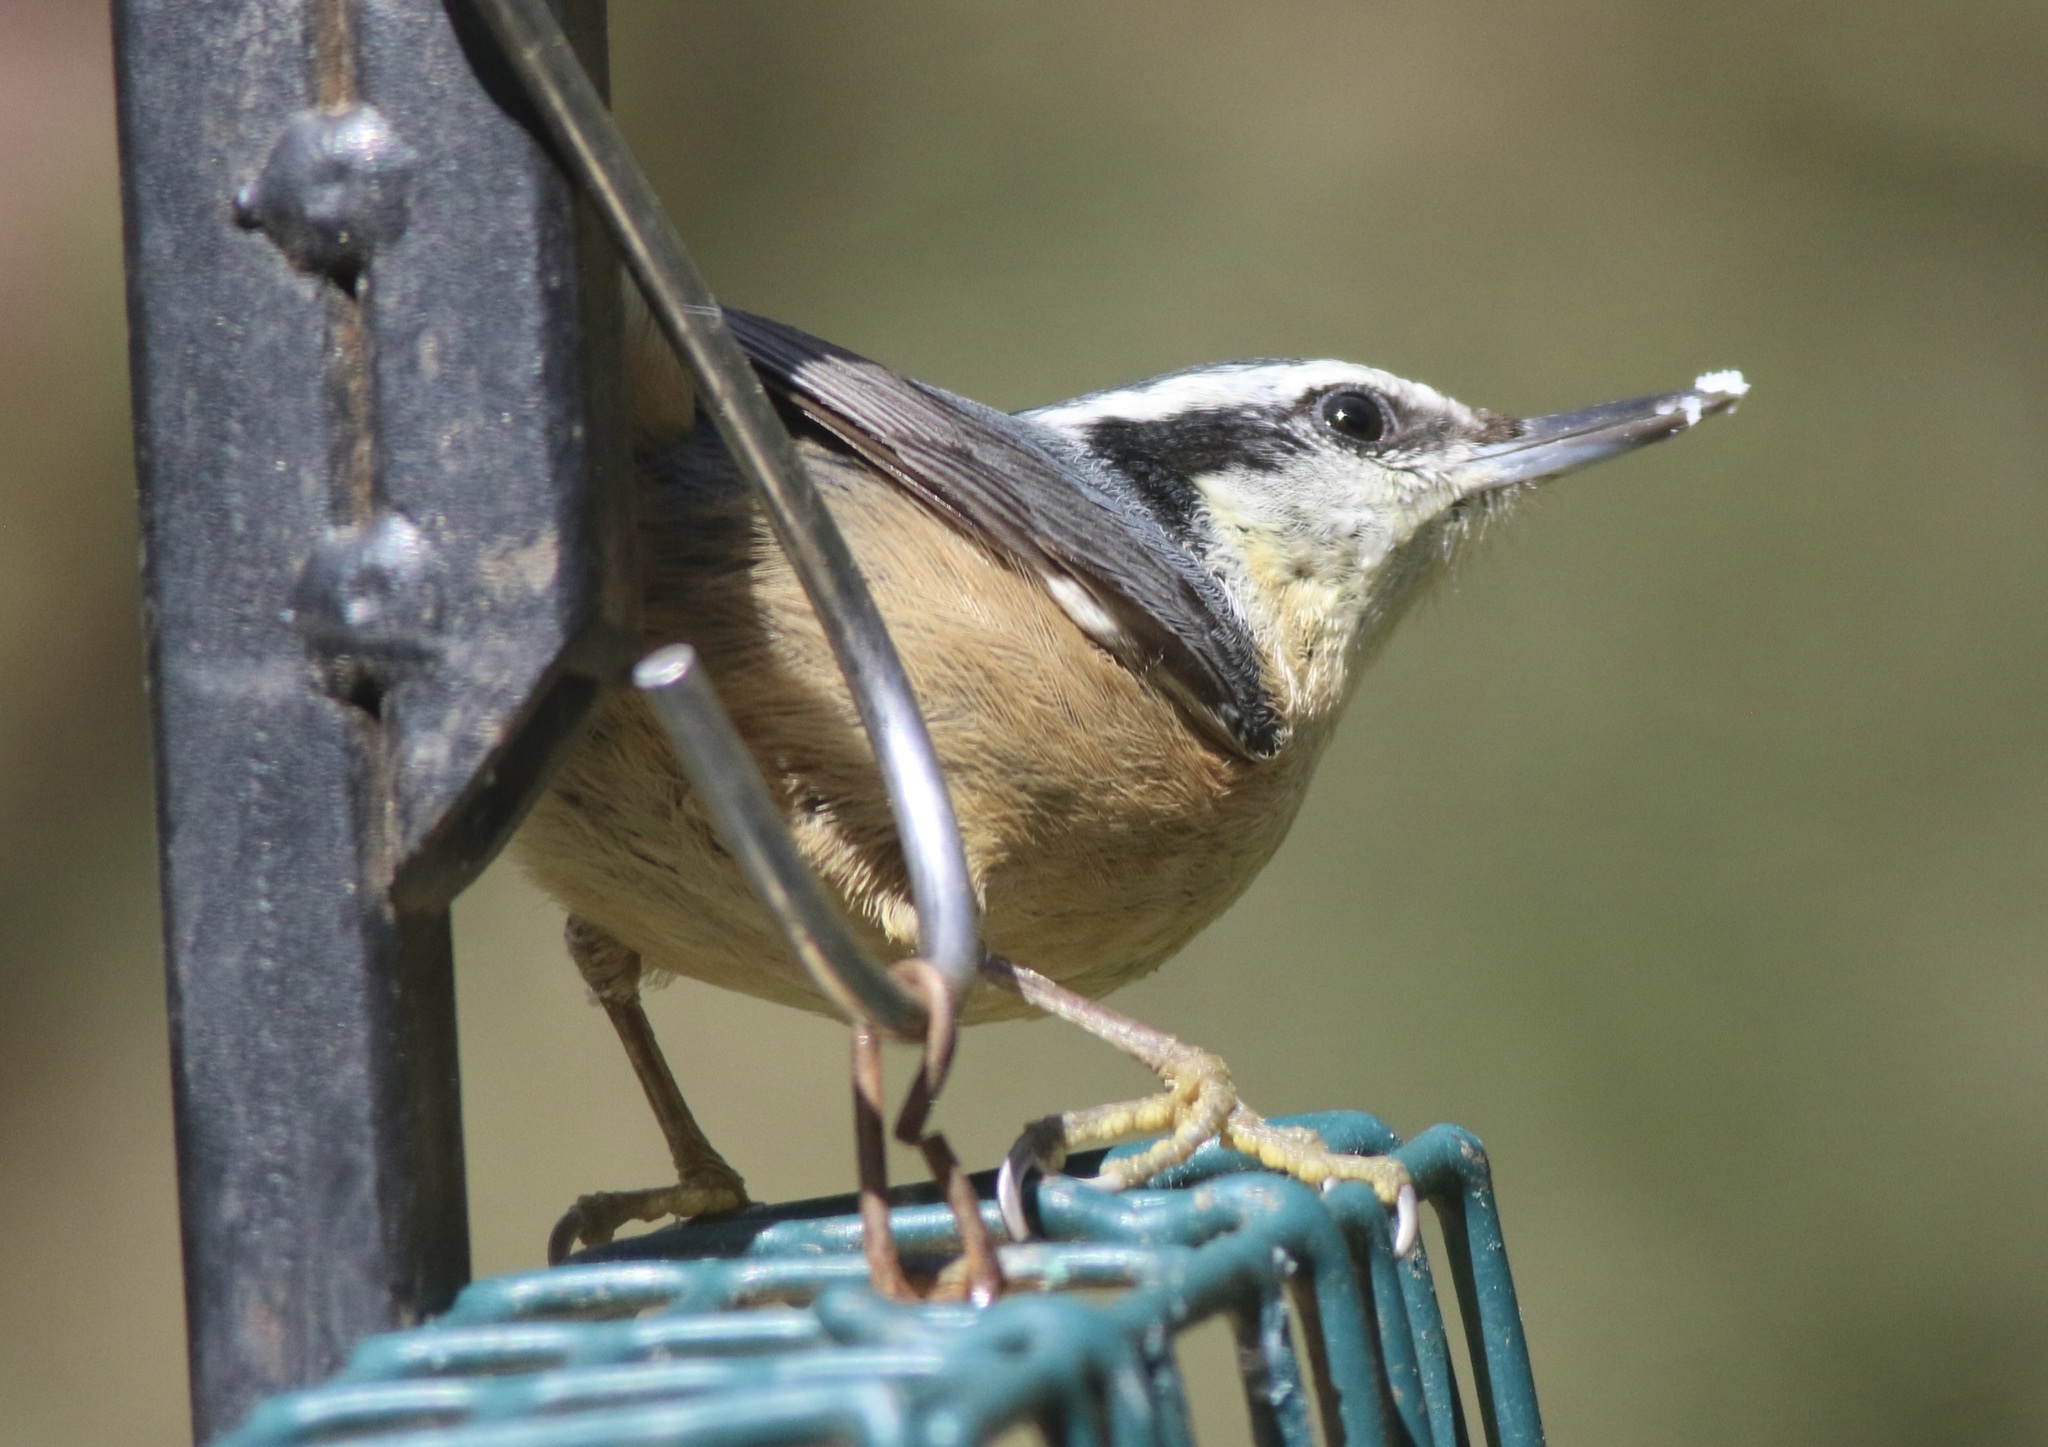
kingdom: Animalia
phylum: Chordata
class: Aves
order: Passeriformes
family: Sittidae
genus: Sitta
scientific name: Sitta canadensis
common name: Red-breasted nuthatch
